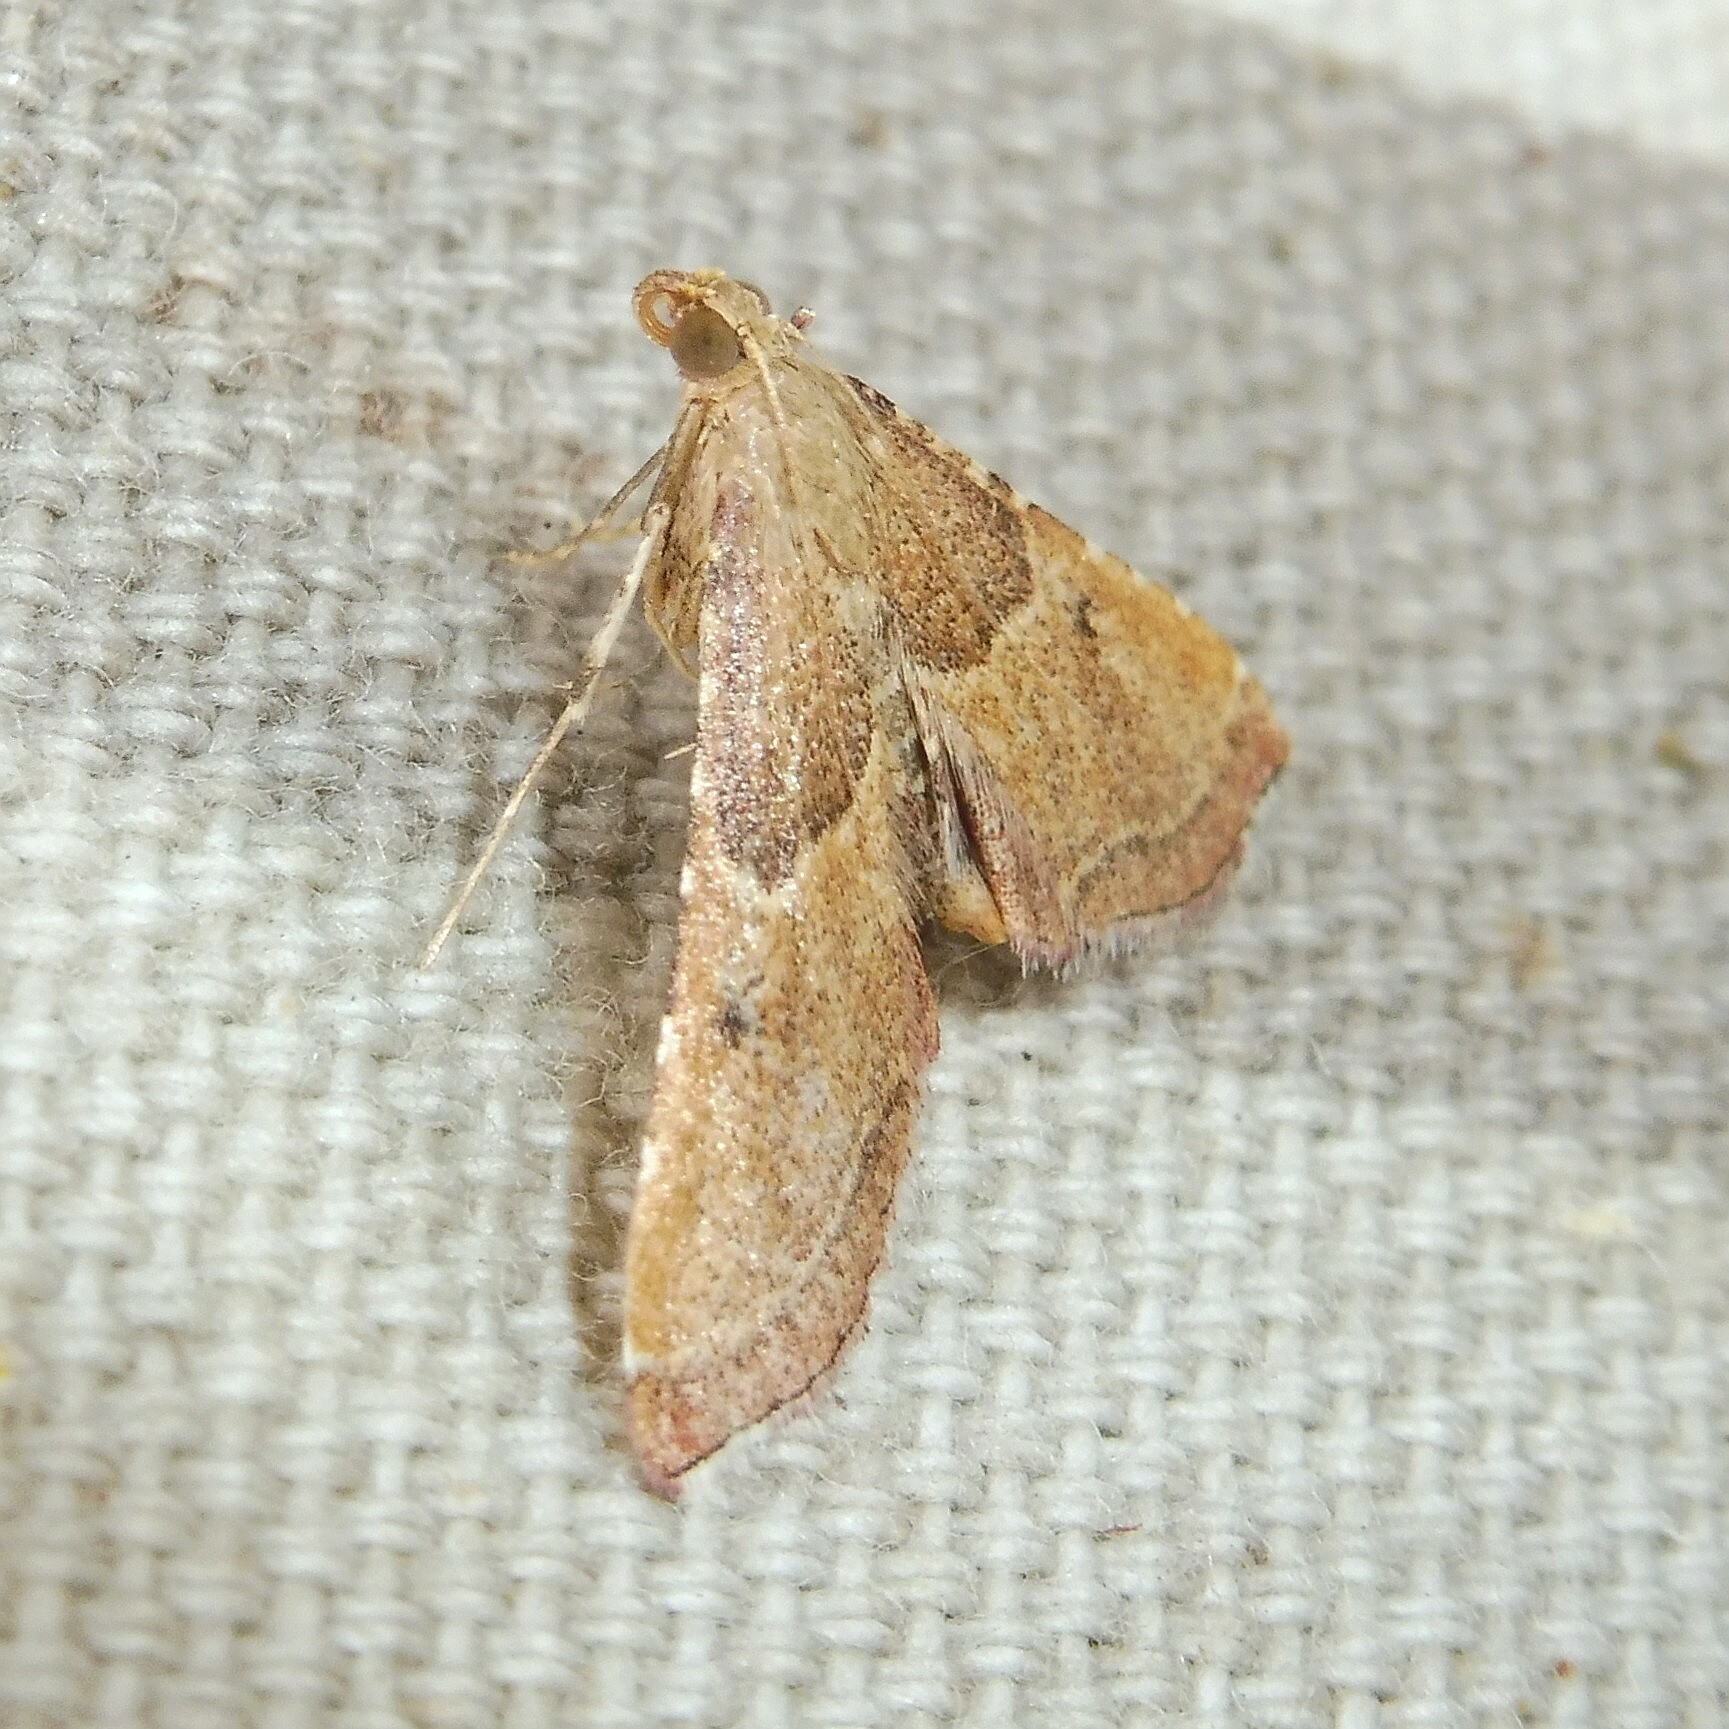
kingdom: Animalia
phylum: Arthropoda
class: Insecta
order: Lepidoptera
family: Pyralidae
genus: Endotricha
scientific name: Endotricha flammealis
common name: Rosy tabby
